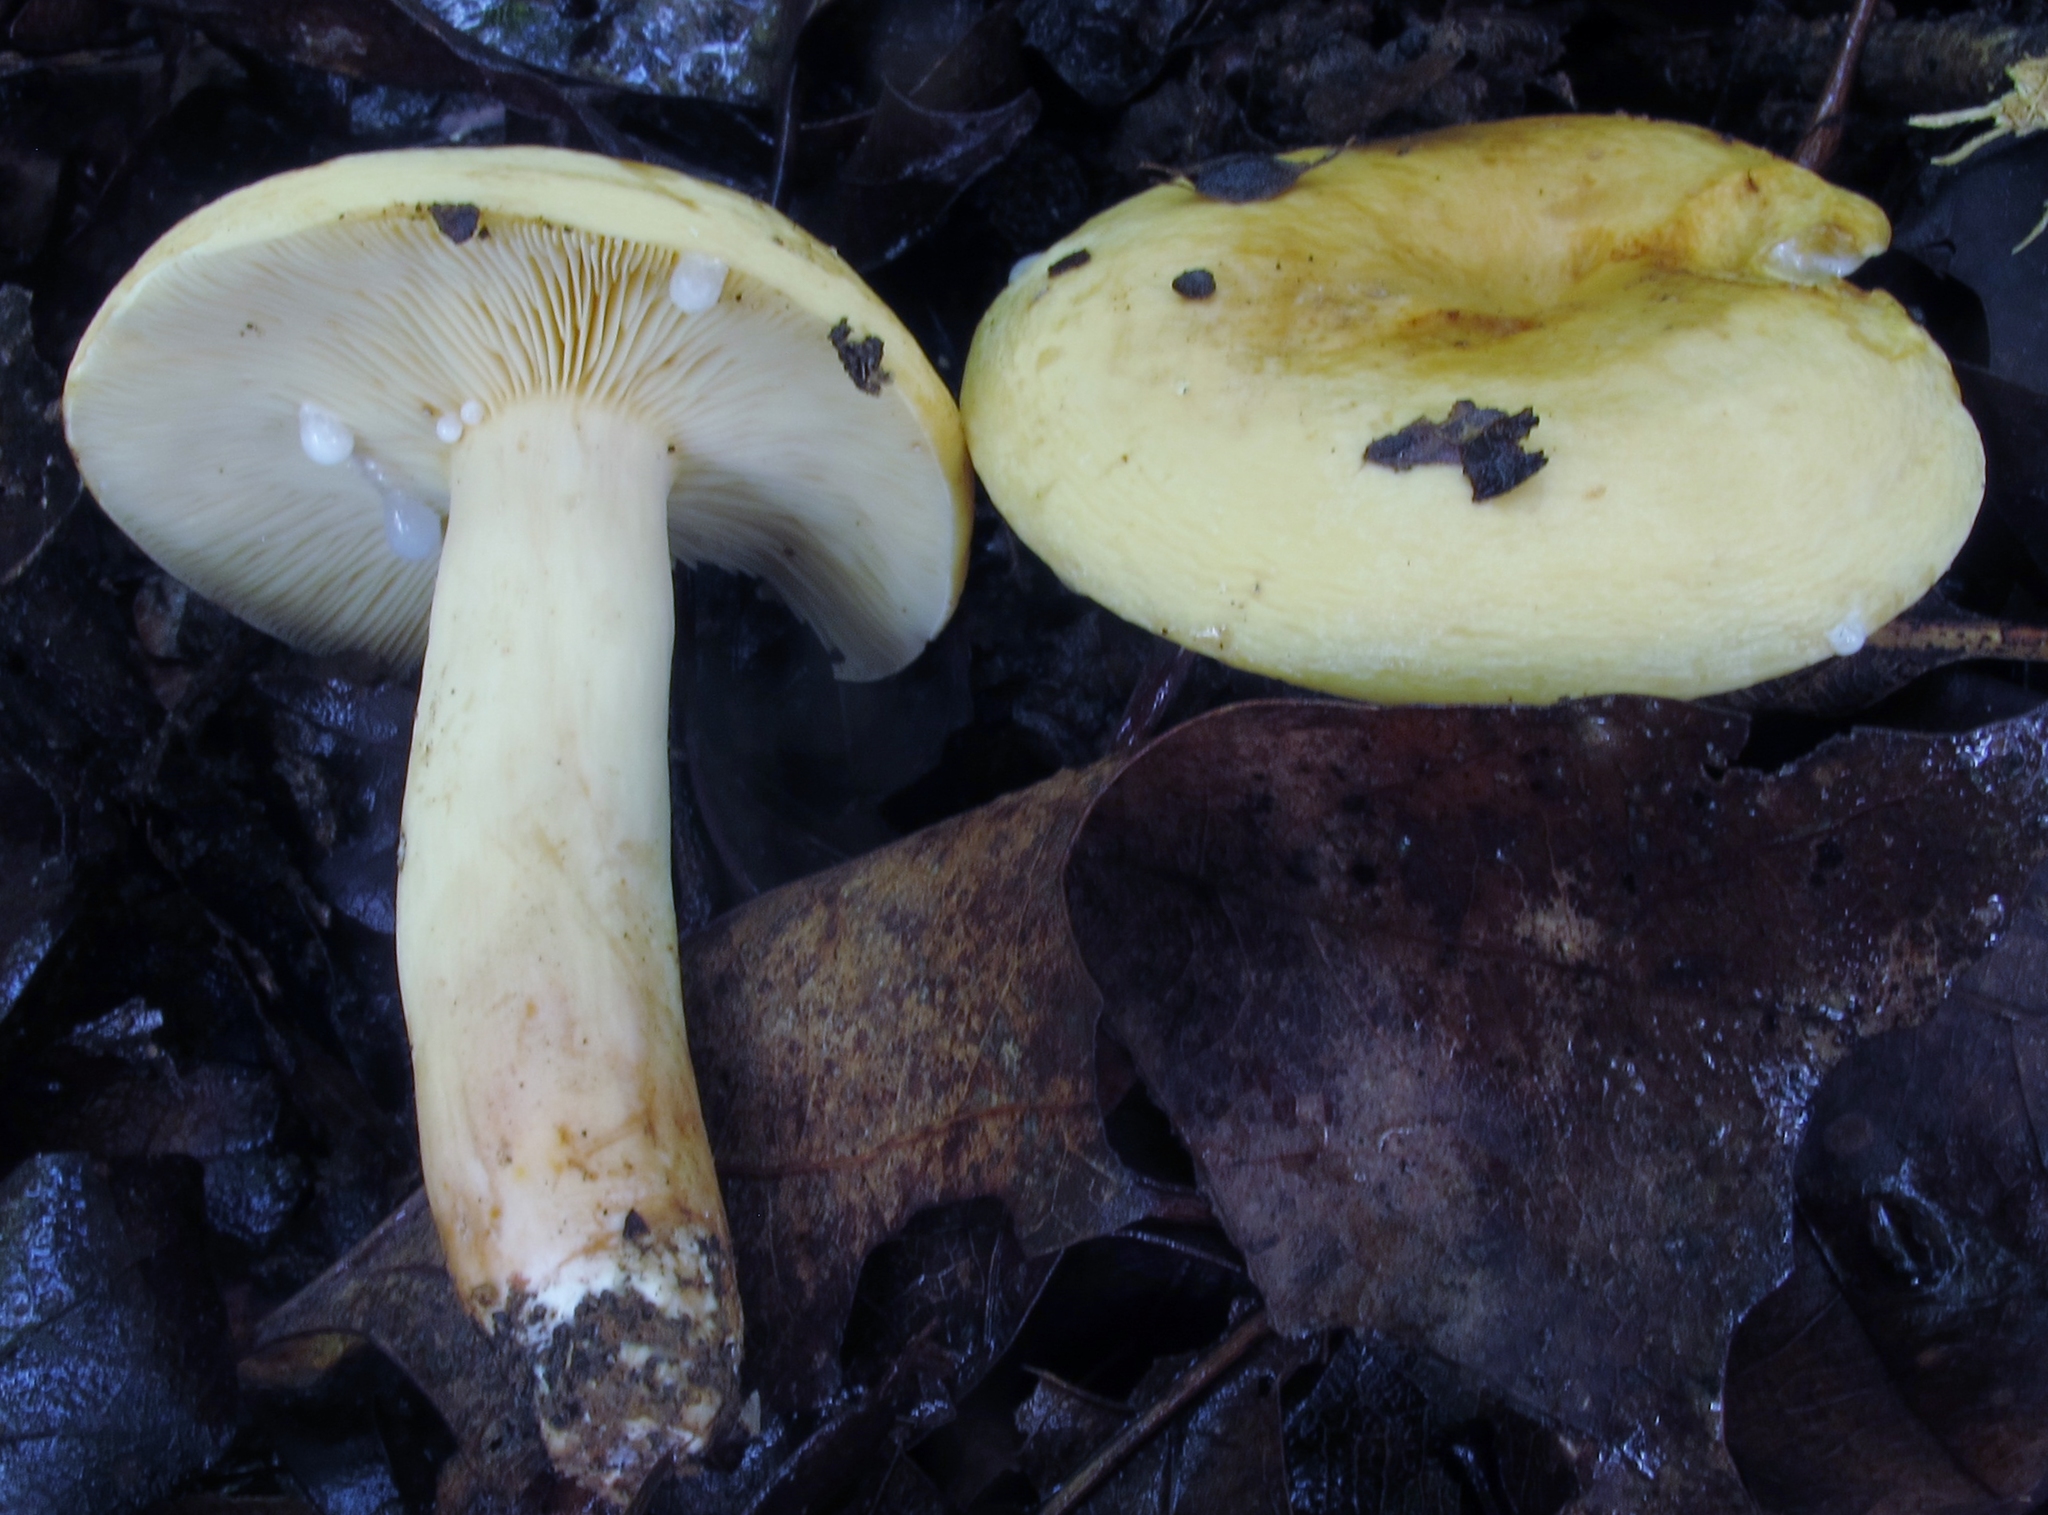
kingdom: Fungi
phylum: Basidiomycota
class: Agaricomycetes
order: Russulales
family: Russulaceae
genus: Lactifluus
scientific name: Lactifluus volemus
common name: Fishy milkcap
